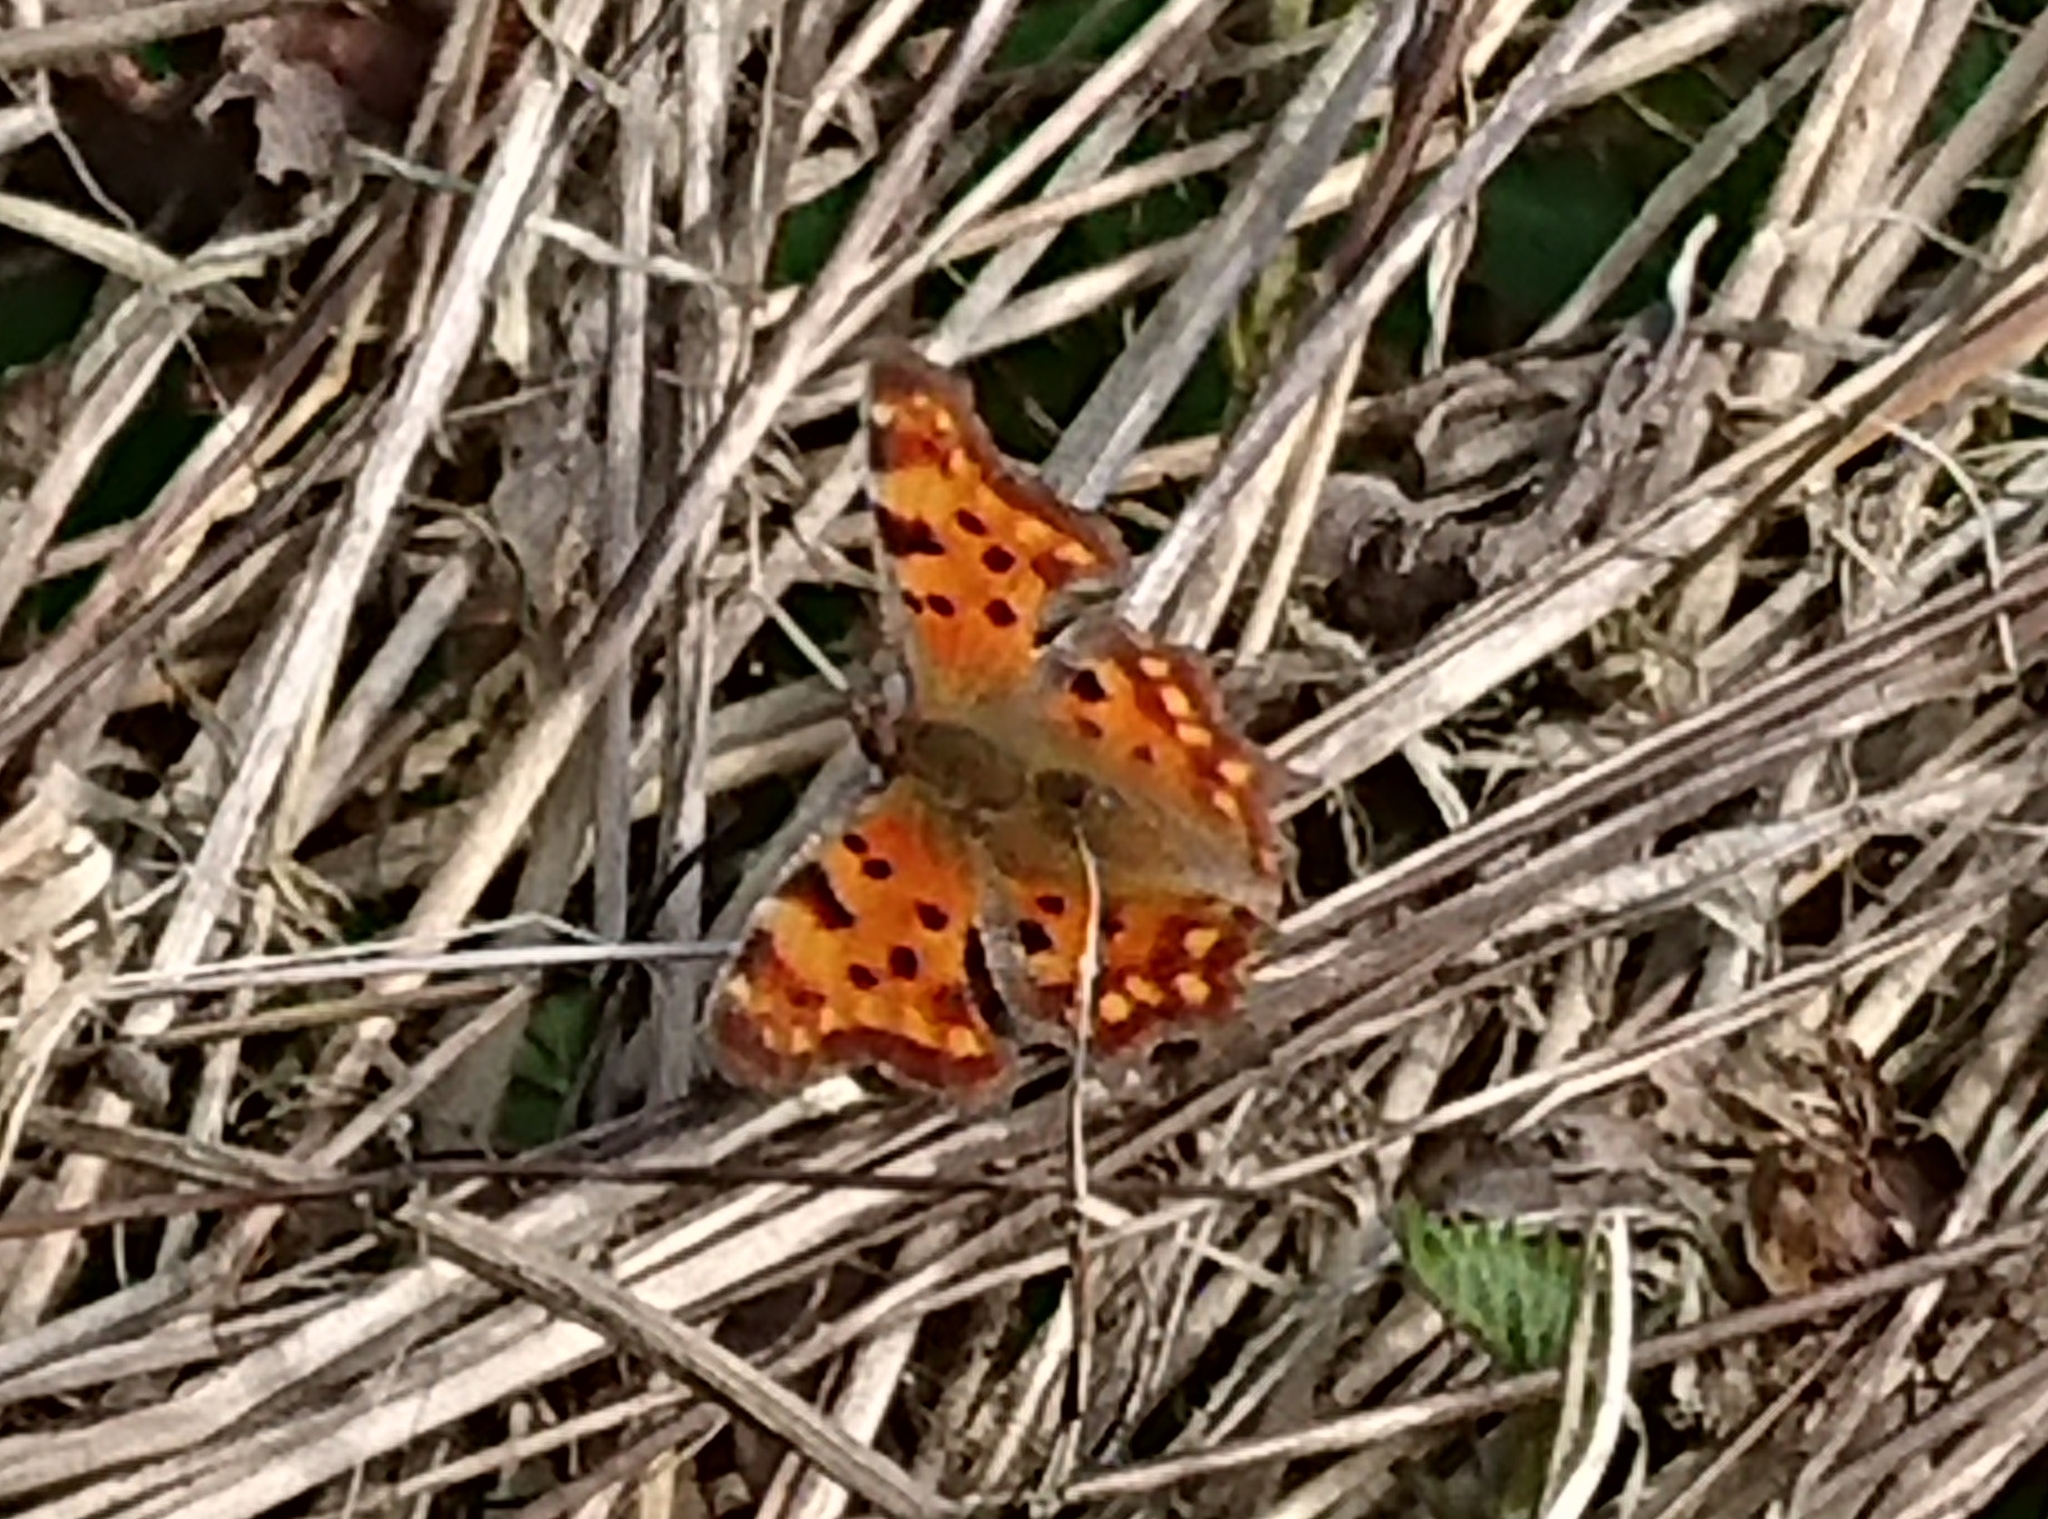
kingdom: Animalia
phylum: Arthropoda
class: Insecta
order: Lepidoptera
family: Nymphalidae
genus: Polygonia
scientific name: Polygonia c-album
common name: Comma
